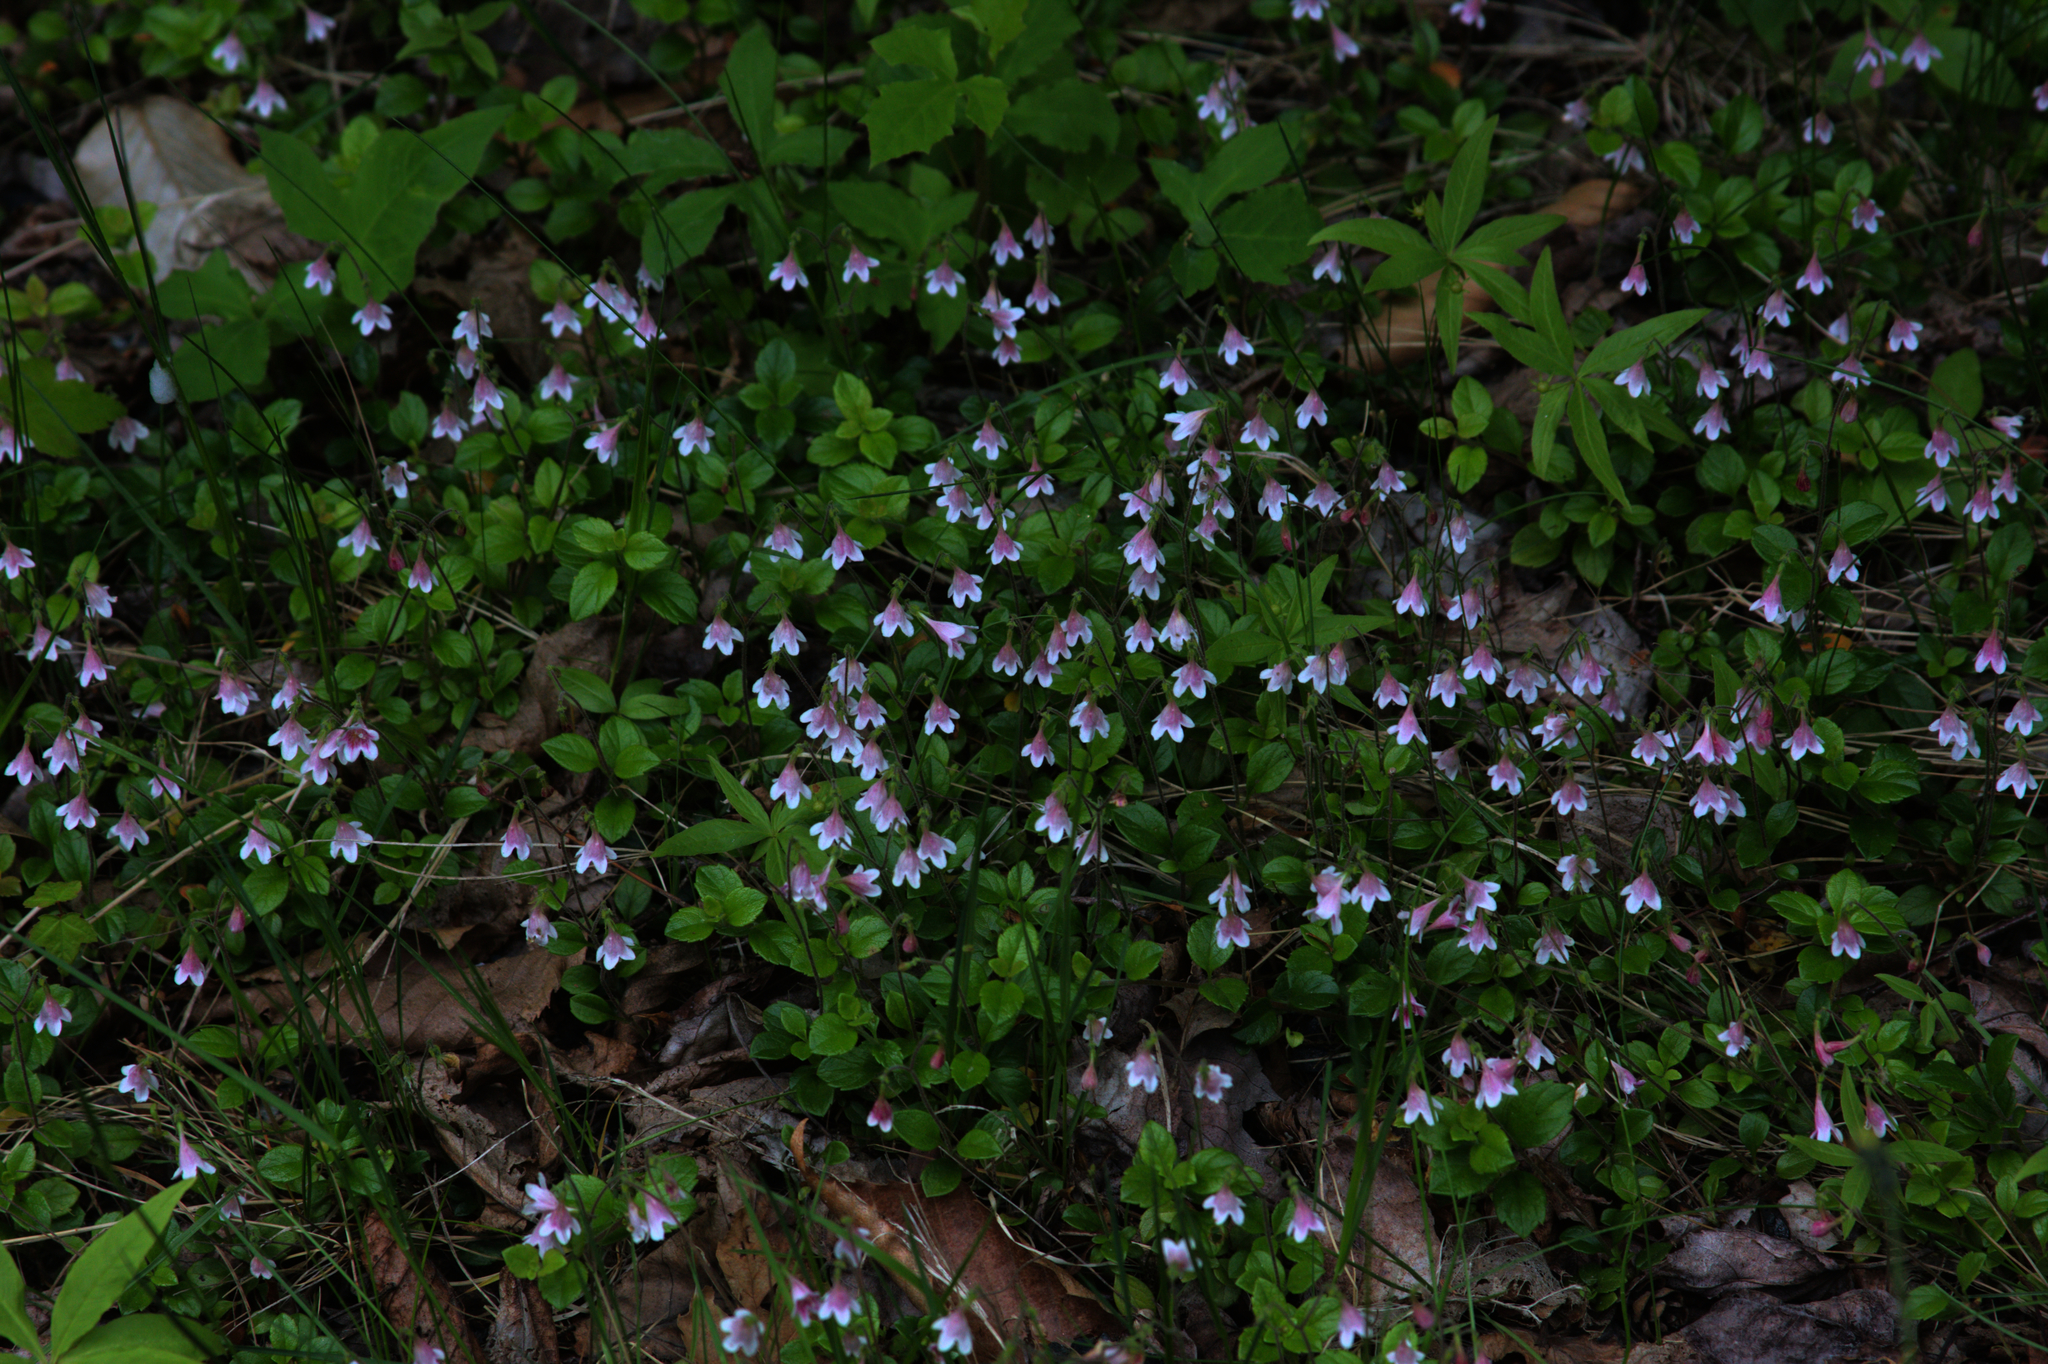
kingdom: Plantae
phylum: Tracheophyta
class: Magnoliopsida
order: Dipsacales
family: Caprifoliaceae
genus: Linnaea
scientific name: Linnaea borealis
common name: Twinflower
